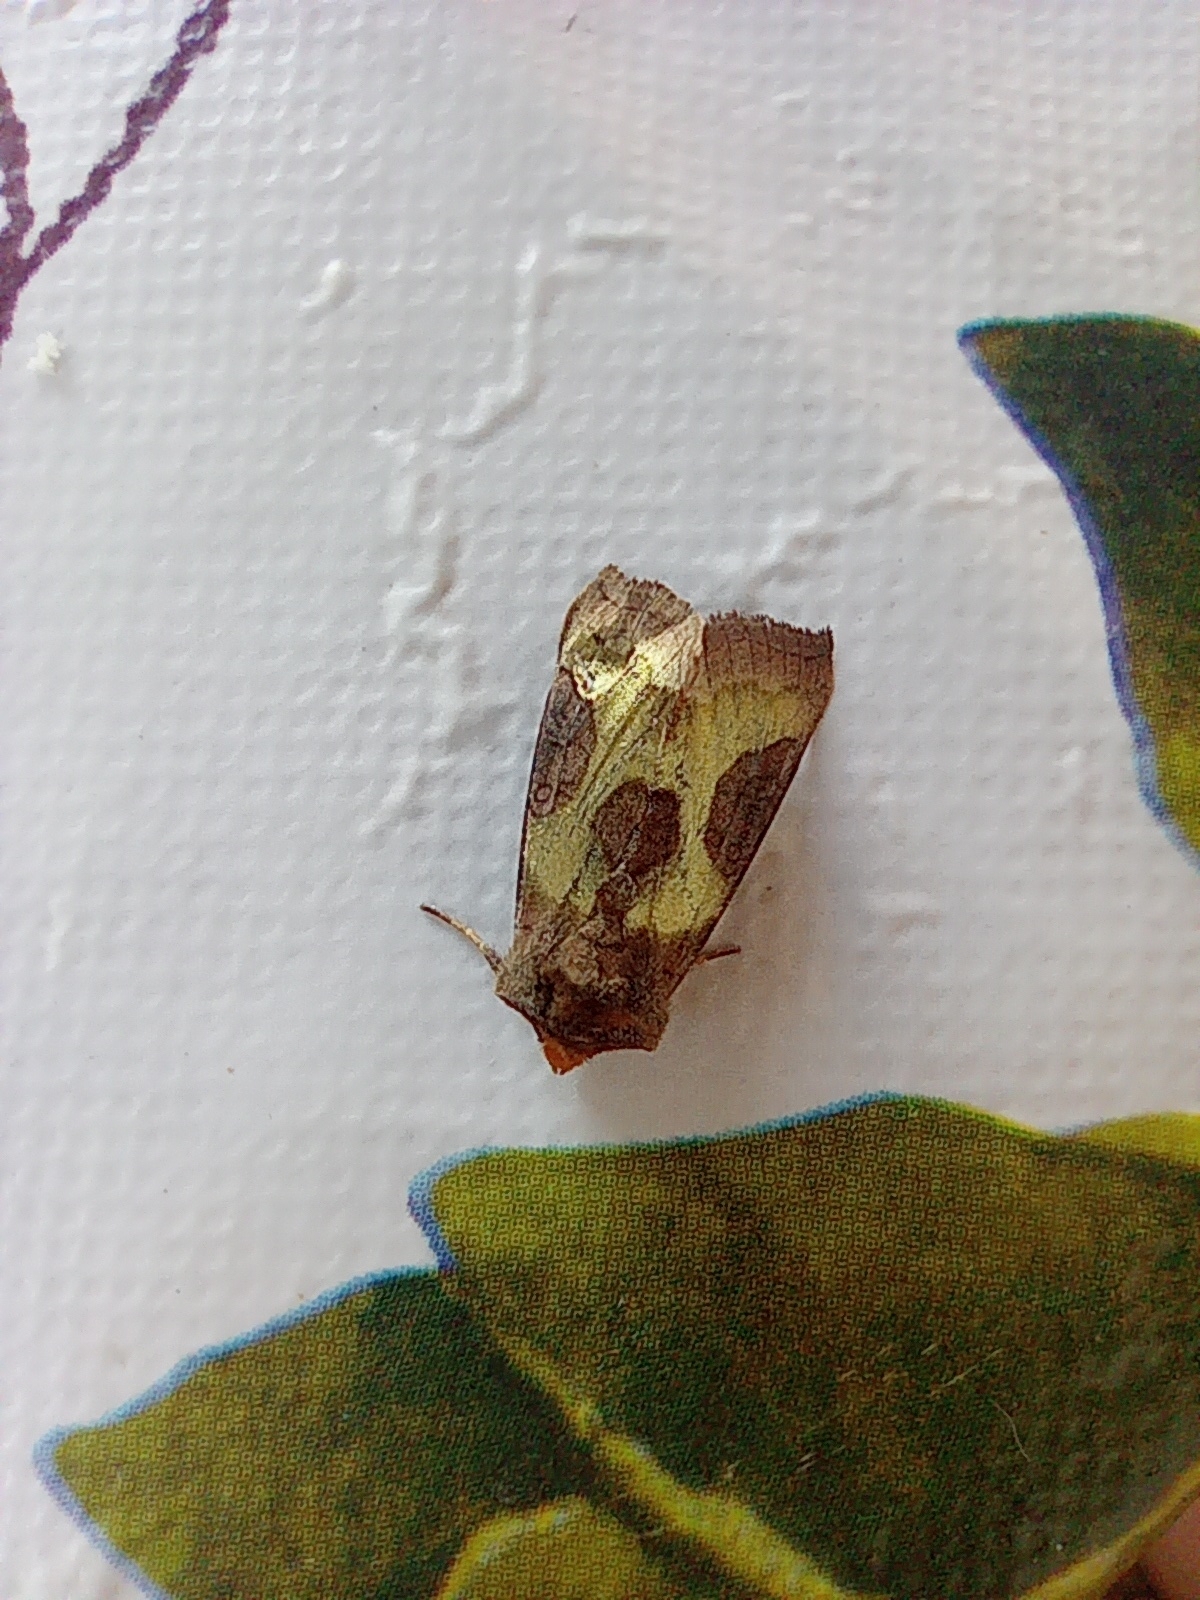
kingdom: Animalia
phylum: Arthropoda
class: Insecta
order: Lepidoptera
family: Noctuidae
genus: Diachrysia
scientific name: Diachrysia chrysitis
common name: Burnished brass
